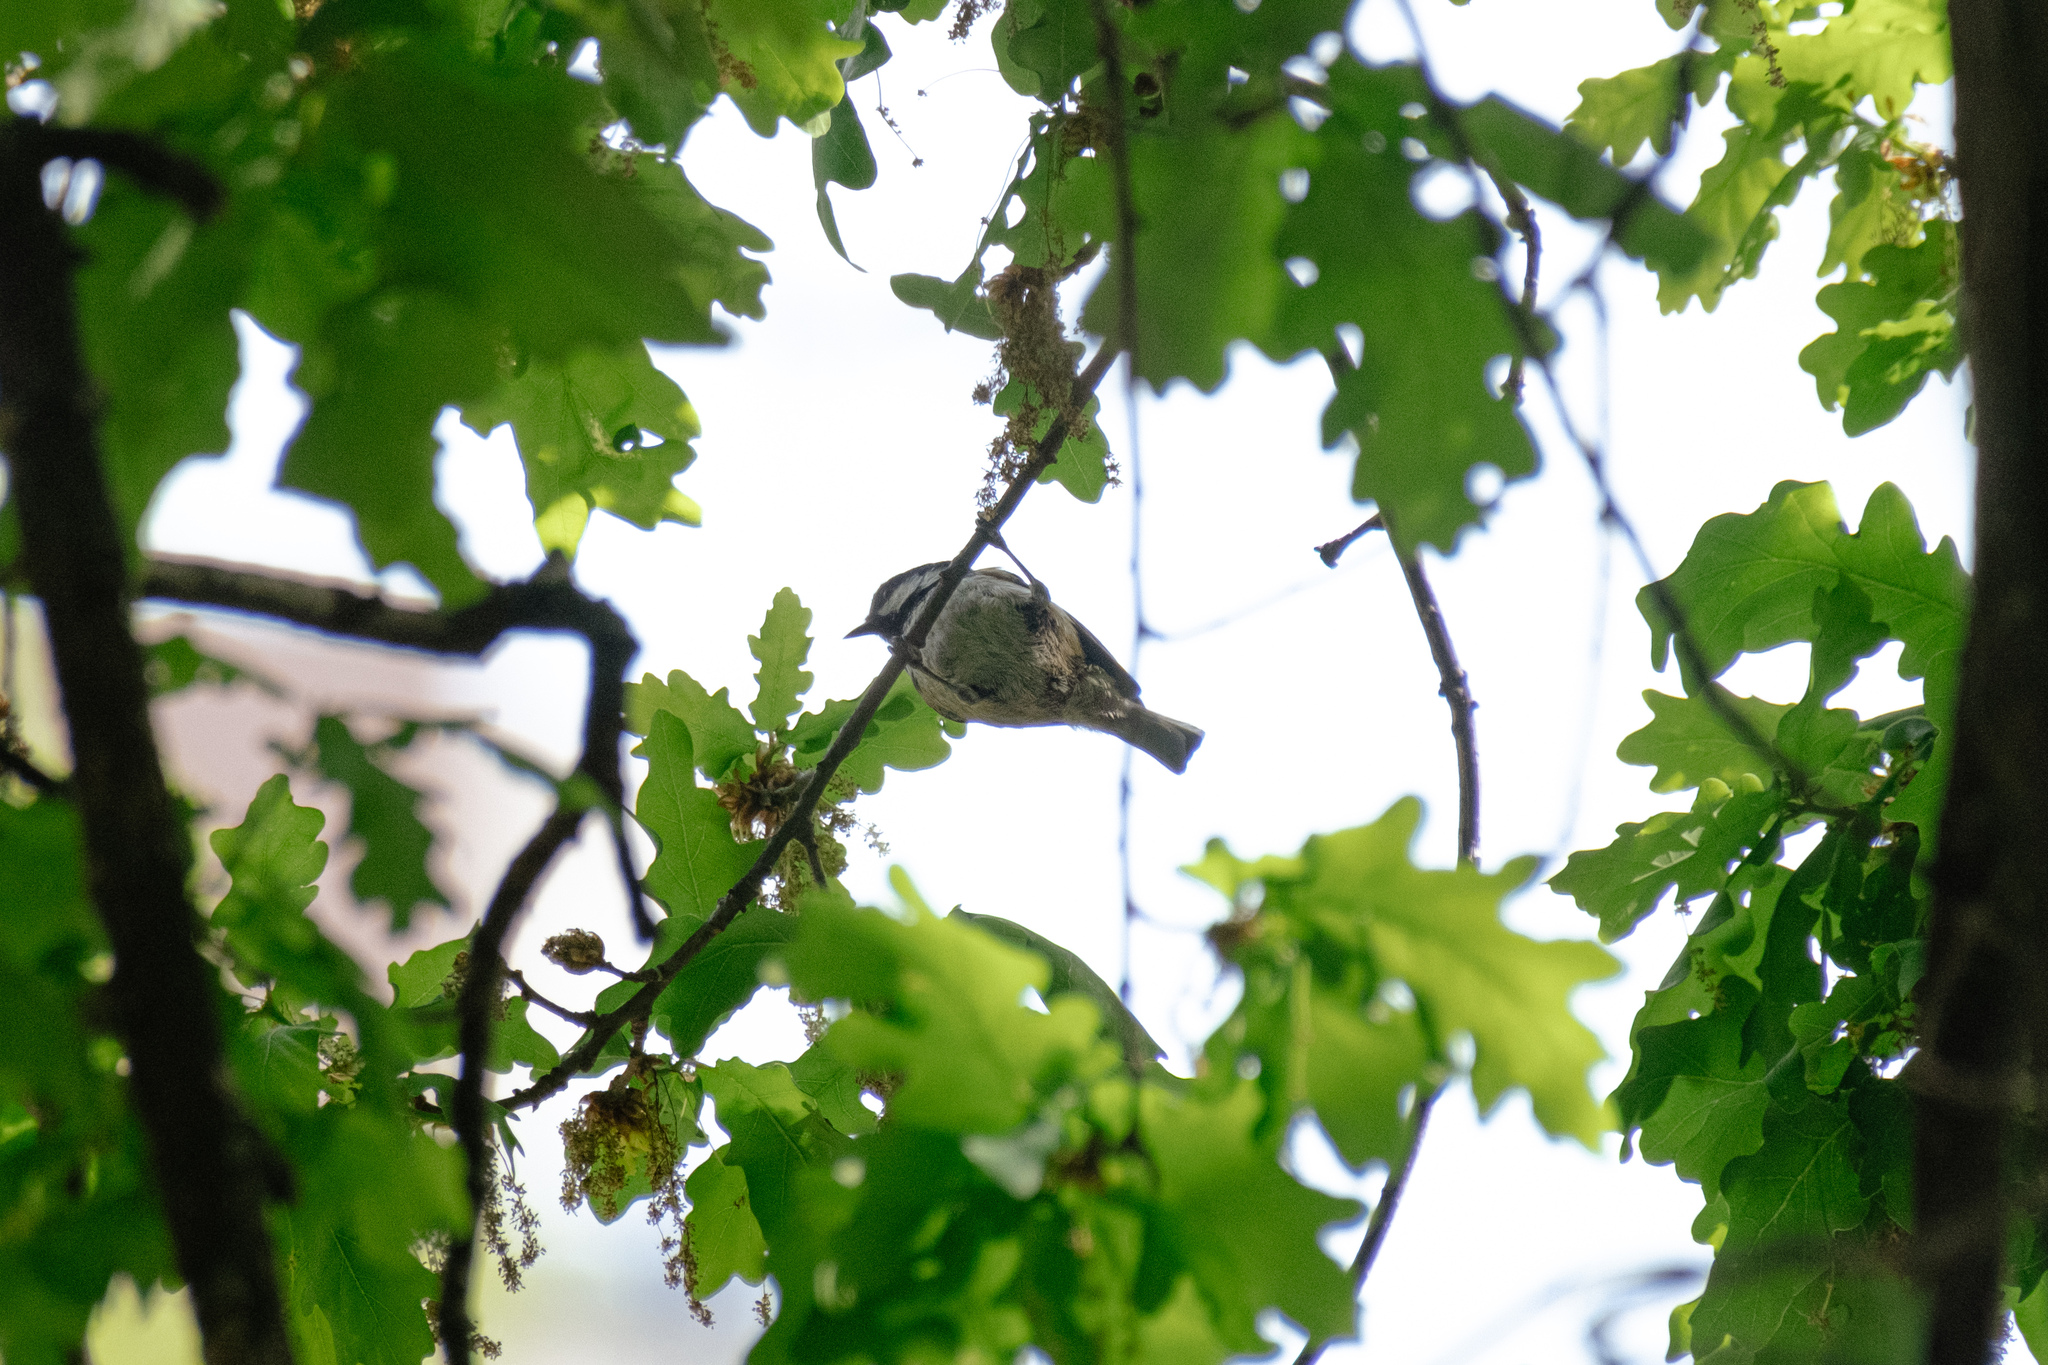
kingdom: Animalia
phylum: Chordata
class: Aves
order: Passeriformes
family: Paridae
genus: Periparus
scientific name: Periparus ater
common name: Coal tit
